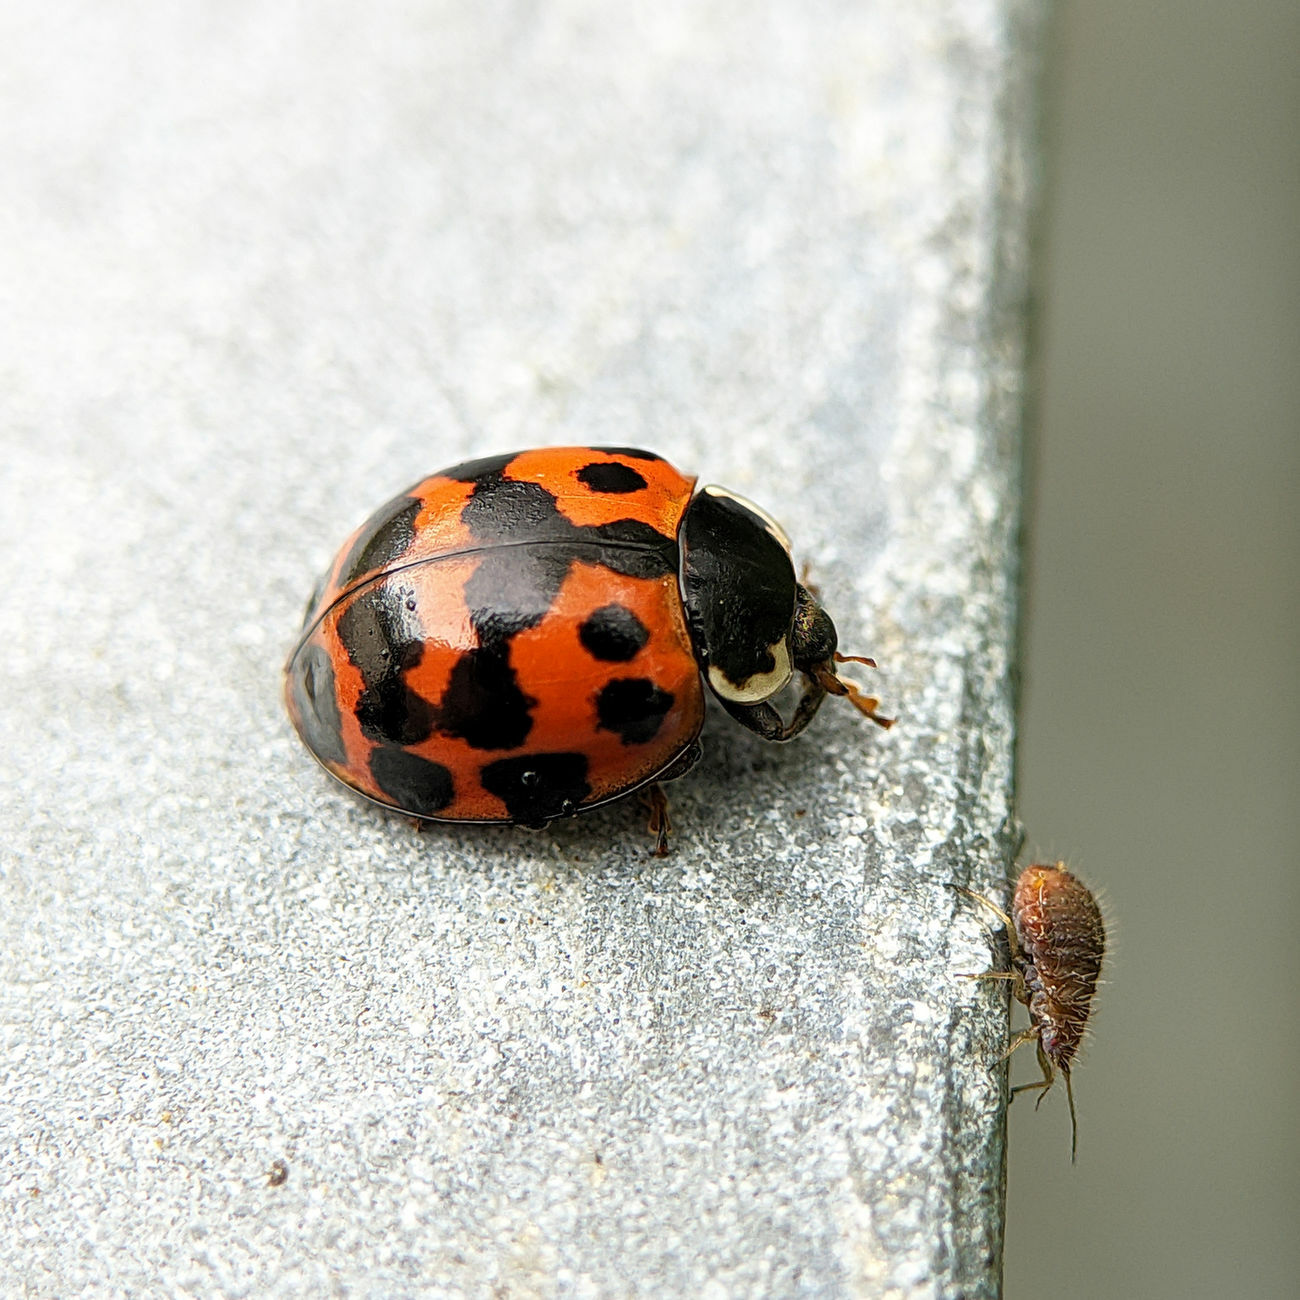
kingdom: Animalia
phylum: Arthropoda
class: Insecta
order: Coleoptera
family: Coccinellidae
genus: Harmonia
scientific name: Harmonia axyridis
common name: Harlequin ladybird
